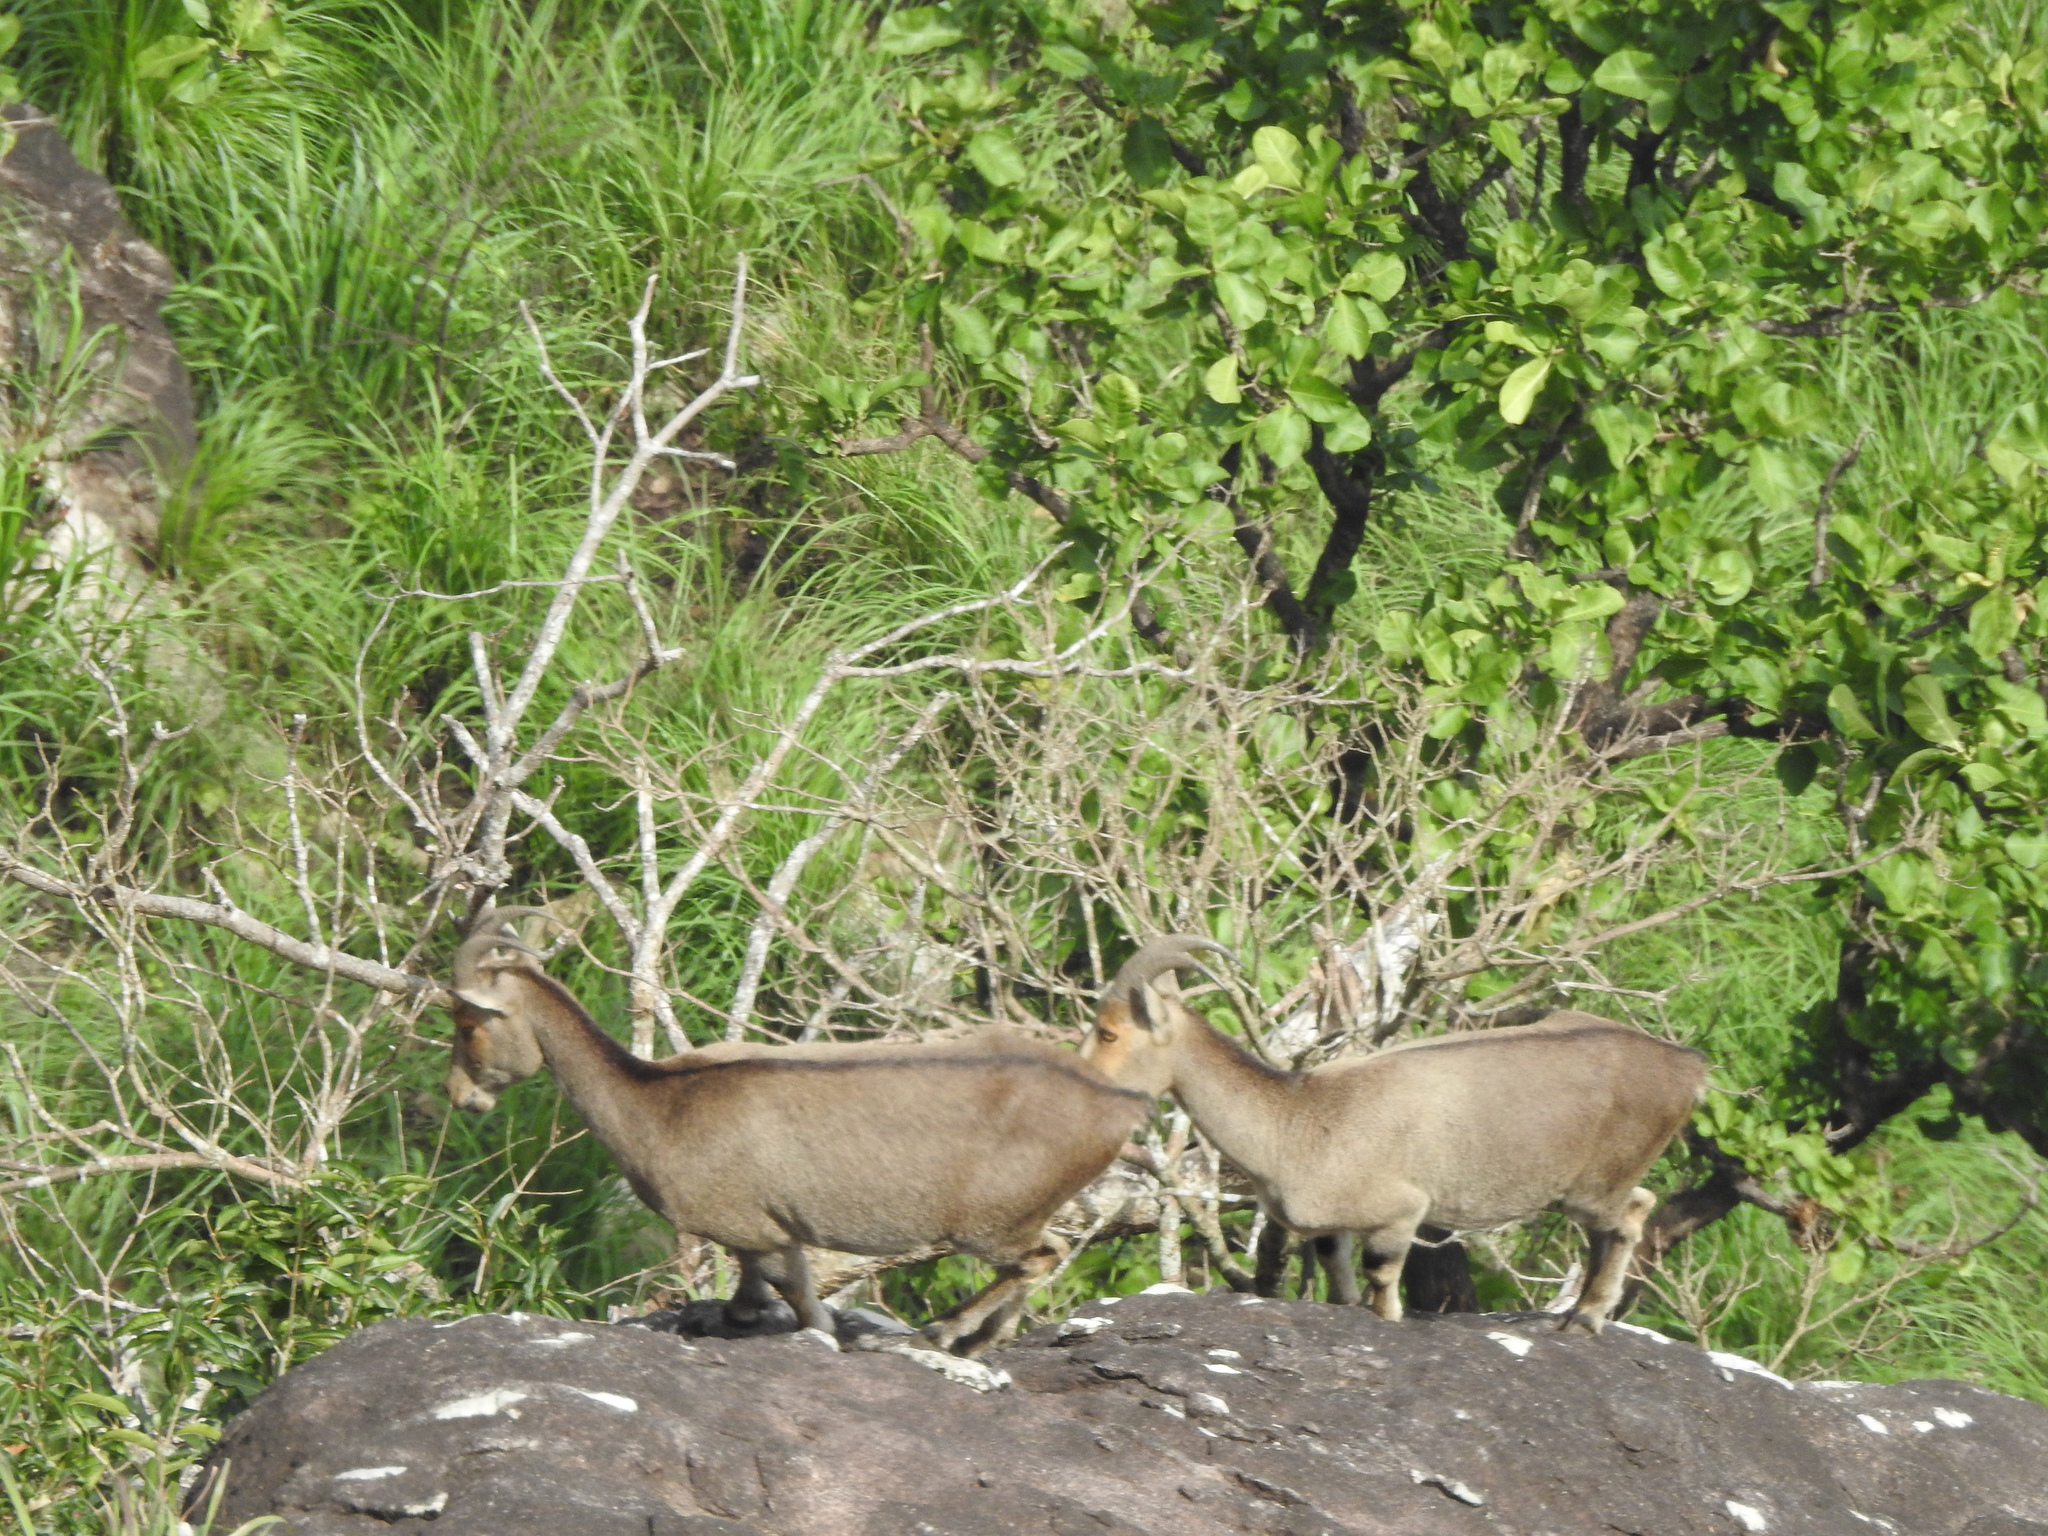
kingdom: Animalia
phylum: Chordata
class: Mammalia
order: Artiodactyla
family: Bovidae
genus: Hemitragus
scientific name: Hemitragus hylocrius
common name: Nilgiri tahr
